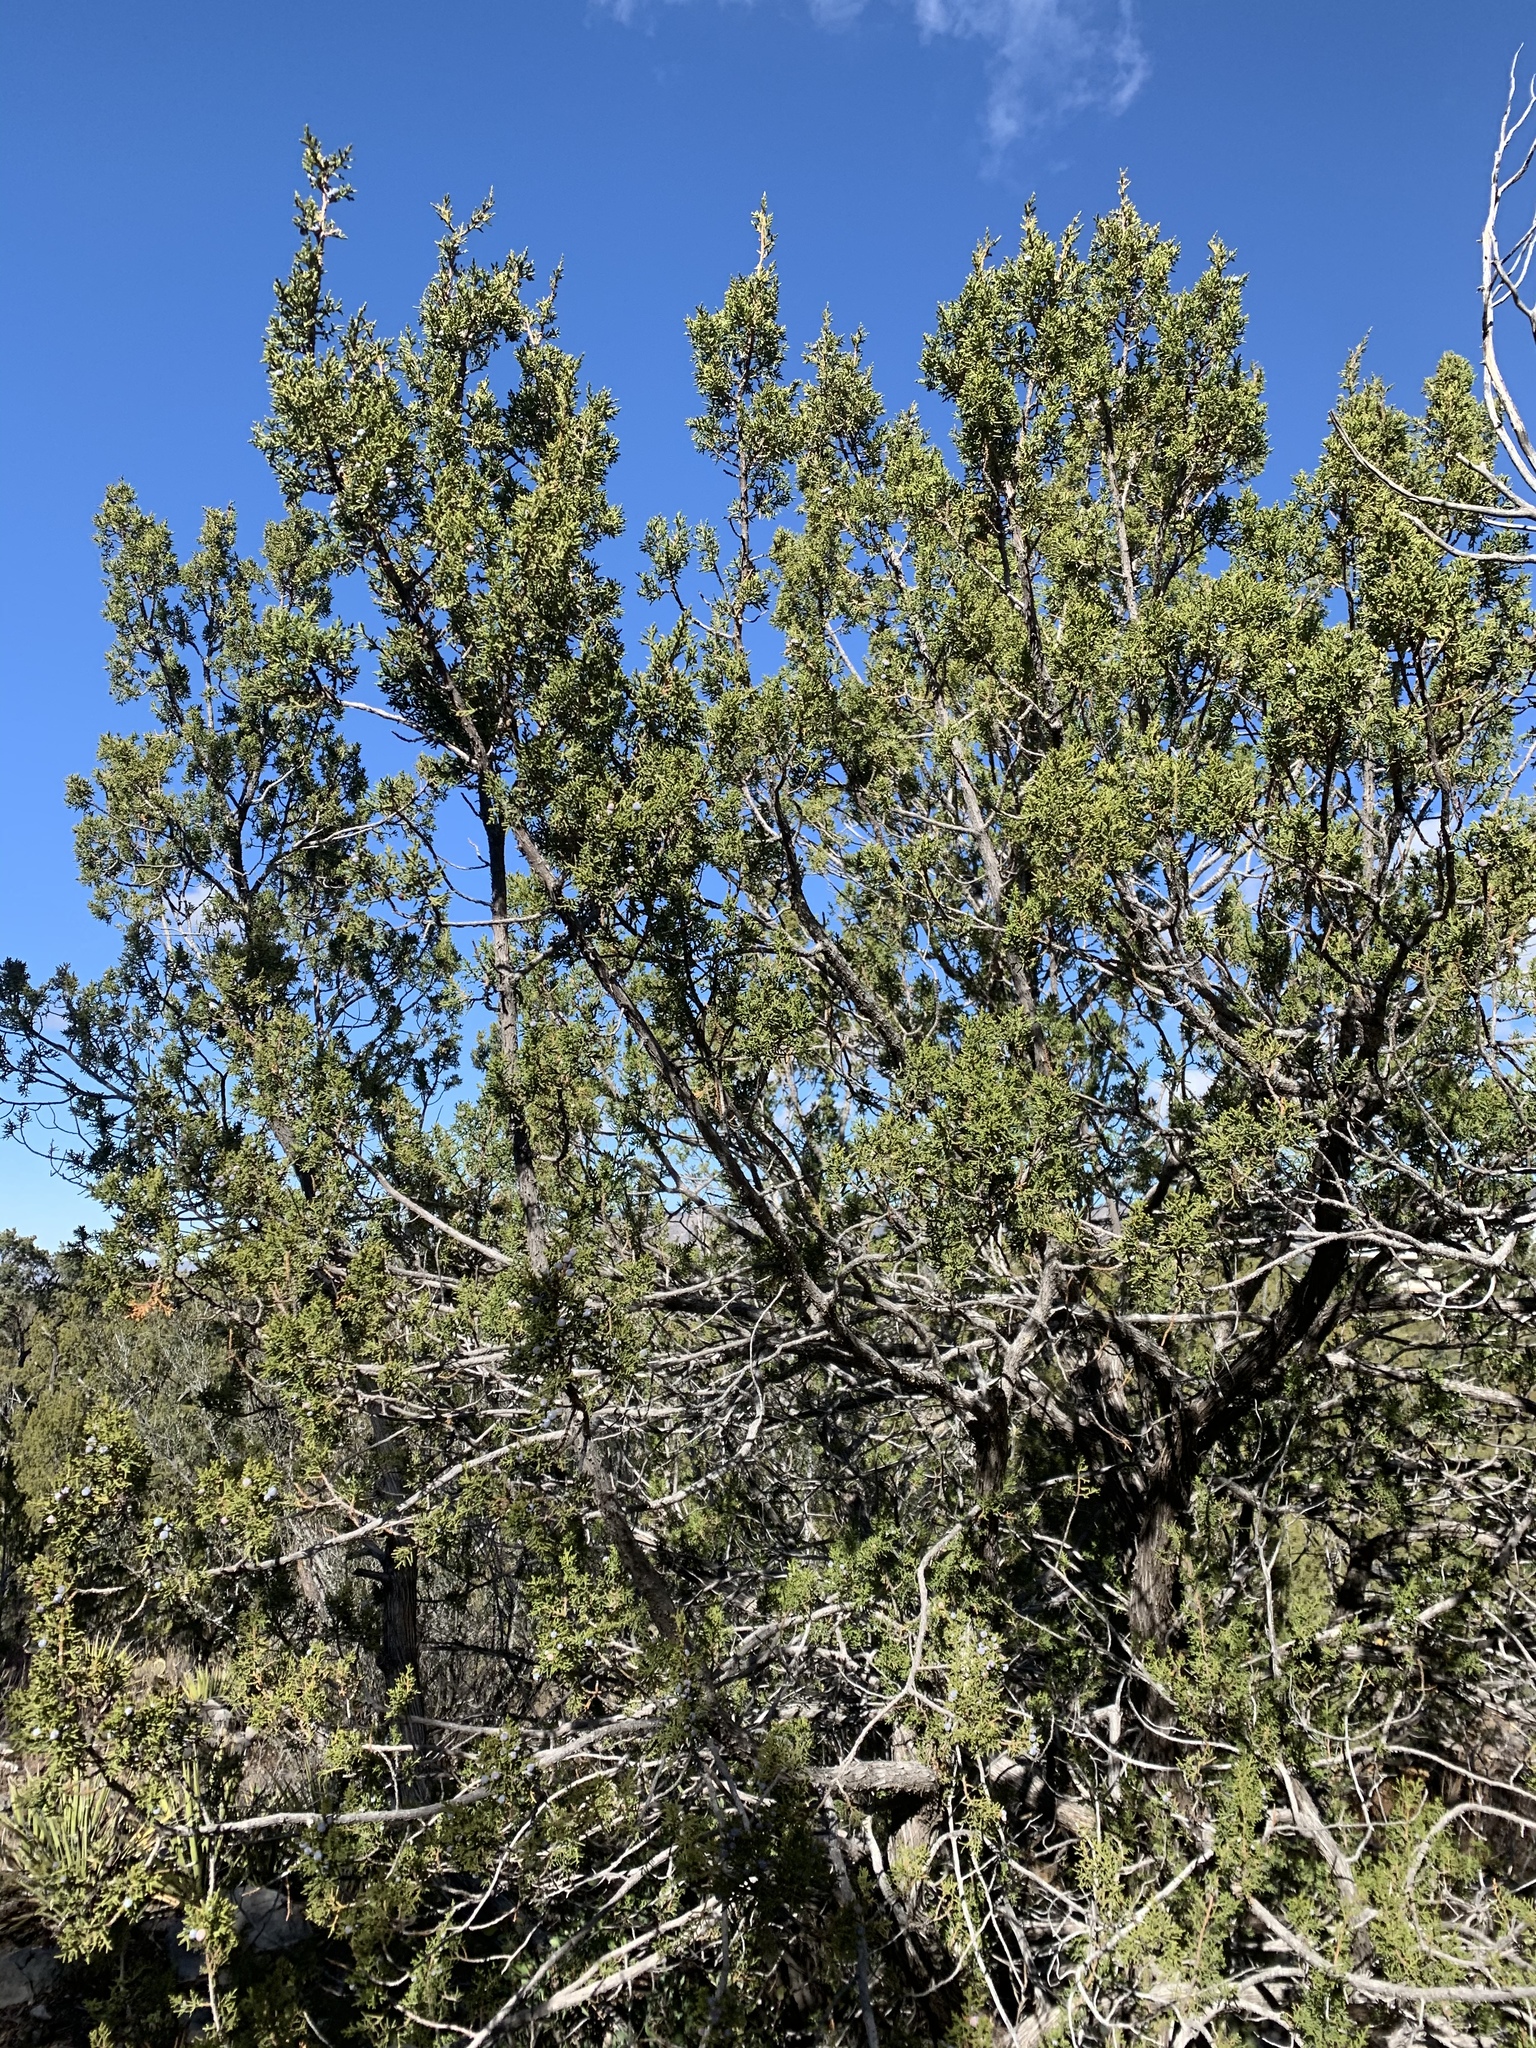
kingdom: Plantae
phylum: Tracheophyta
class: Pinopsida
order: Pinales
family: Cupressaceae
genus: Juniperus
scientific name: Juniperus monosperma
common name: One-seed juniper
